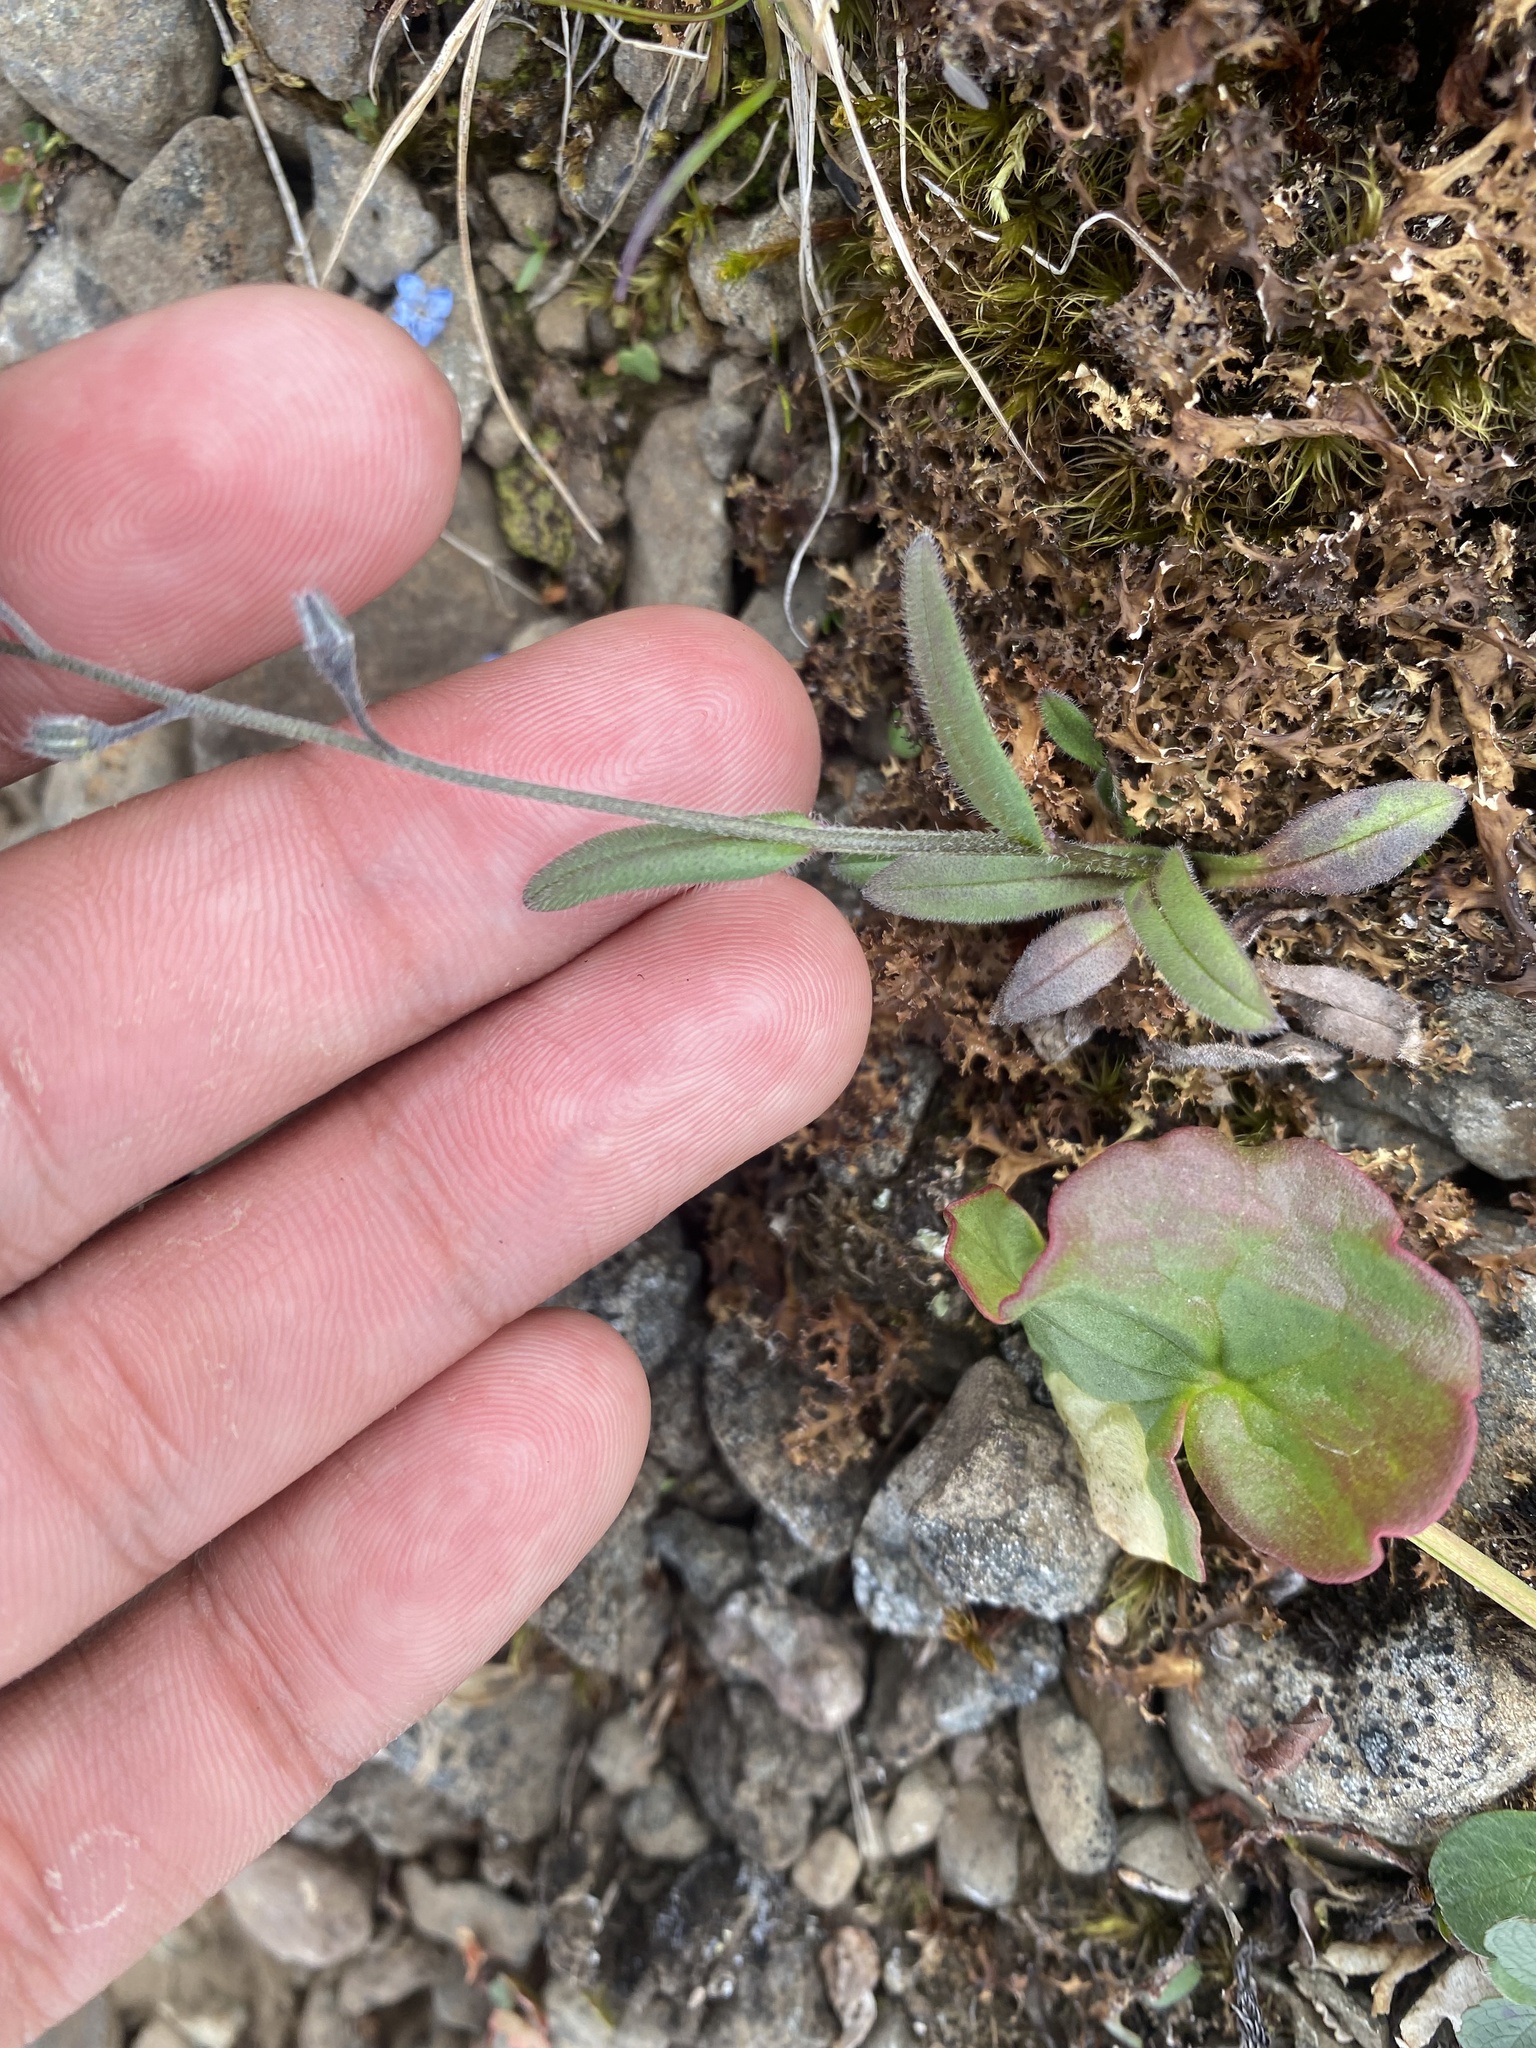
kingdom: Plantae
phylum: Tracheophyta
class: Magnoliopsida
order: Boraginales
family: Boraginaceae
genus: Myosotis
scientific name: Myosotis asiatica
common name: Asian forget-me-not
